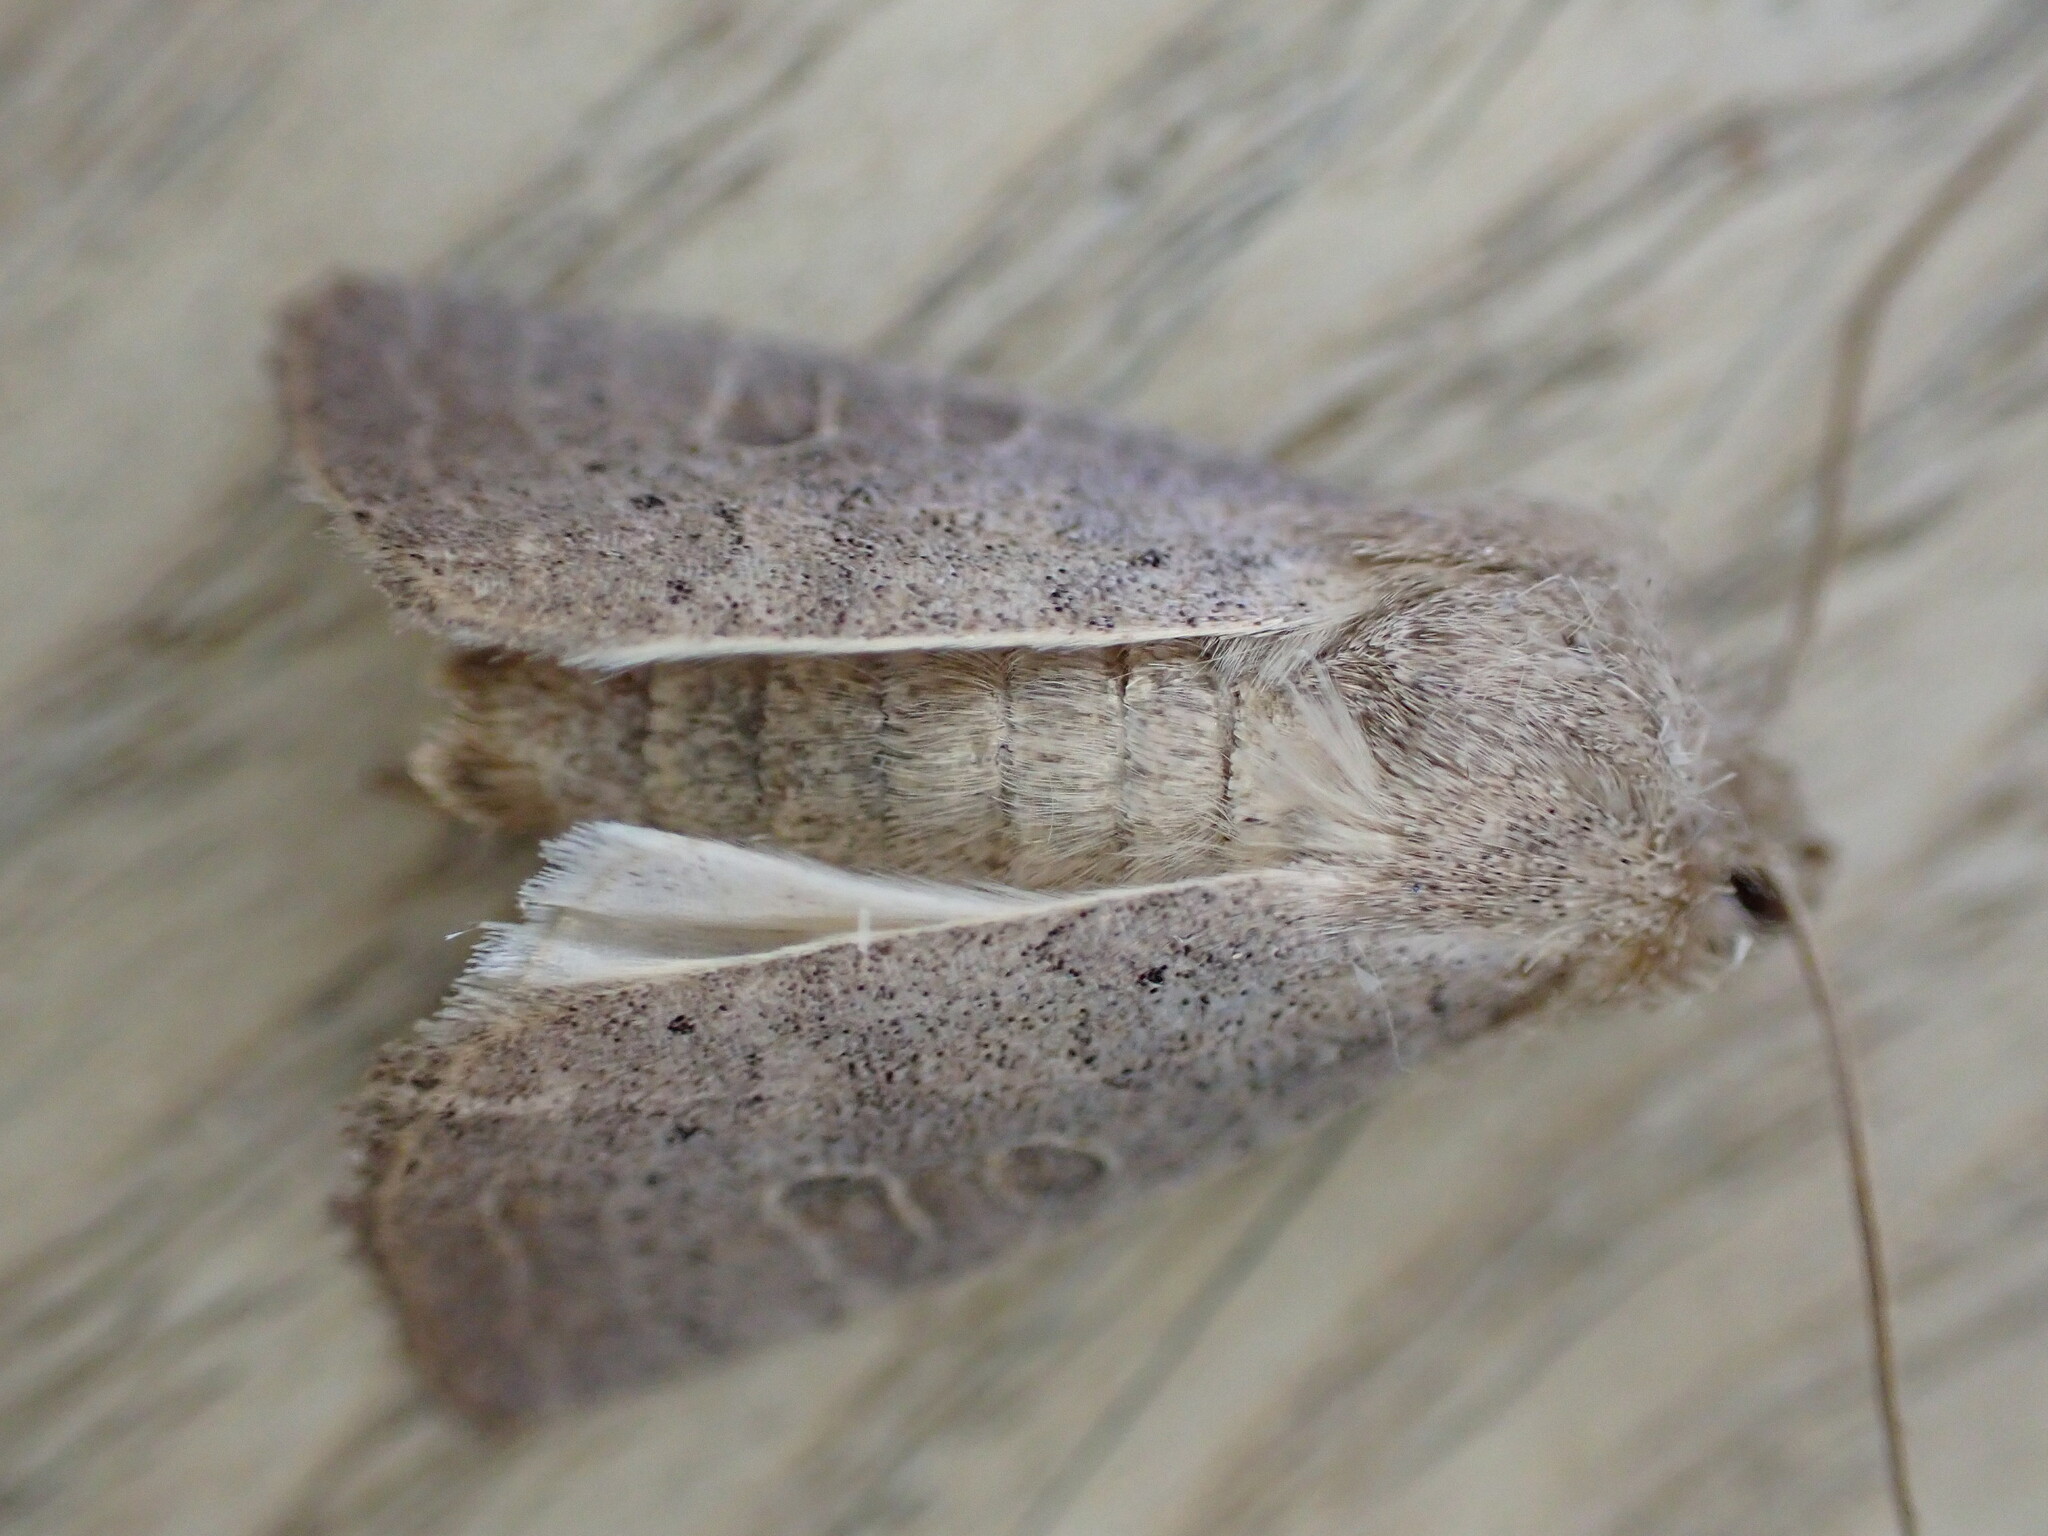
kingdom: Animalia
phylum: Arthropoda
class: Insecta
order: Lepidoptera
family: Noctuidae
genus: Hoplodrina
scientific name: Hoplodrina ambigua
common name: Vine's rustic
